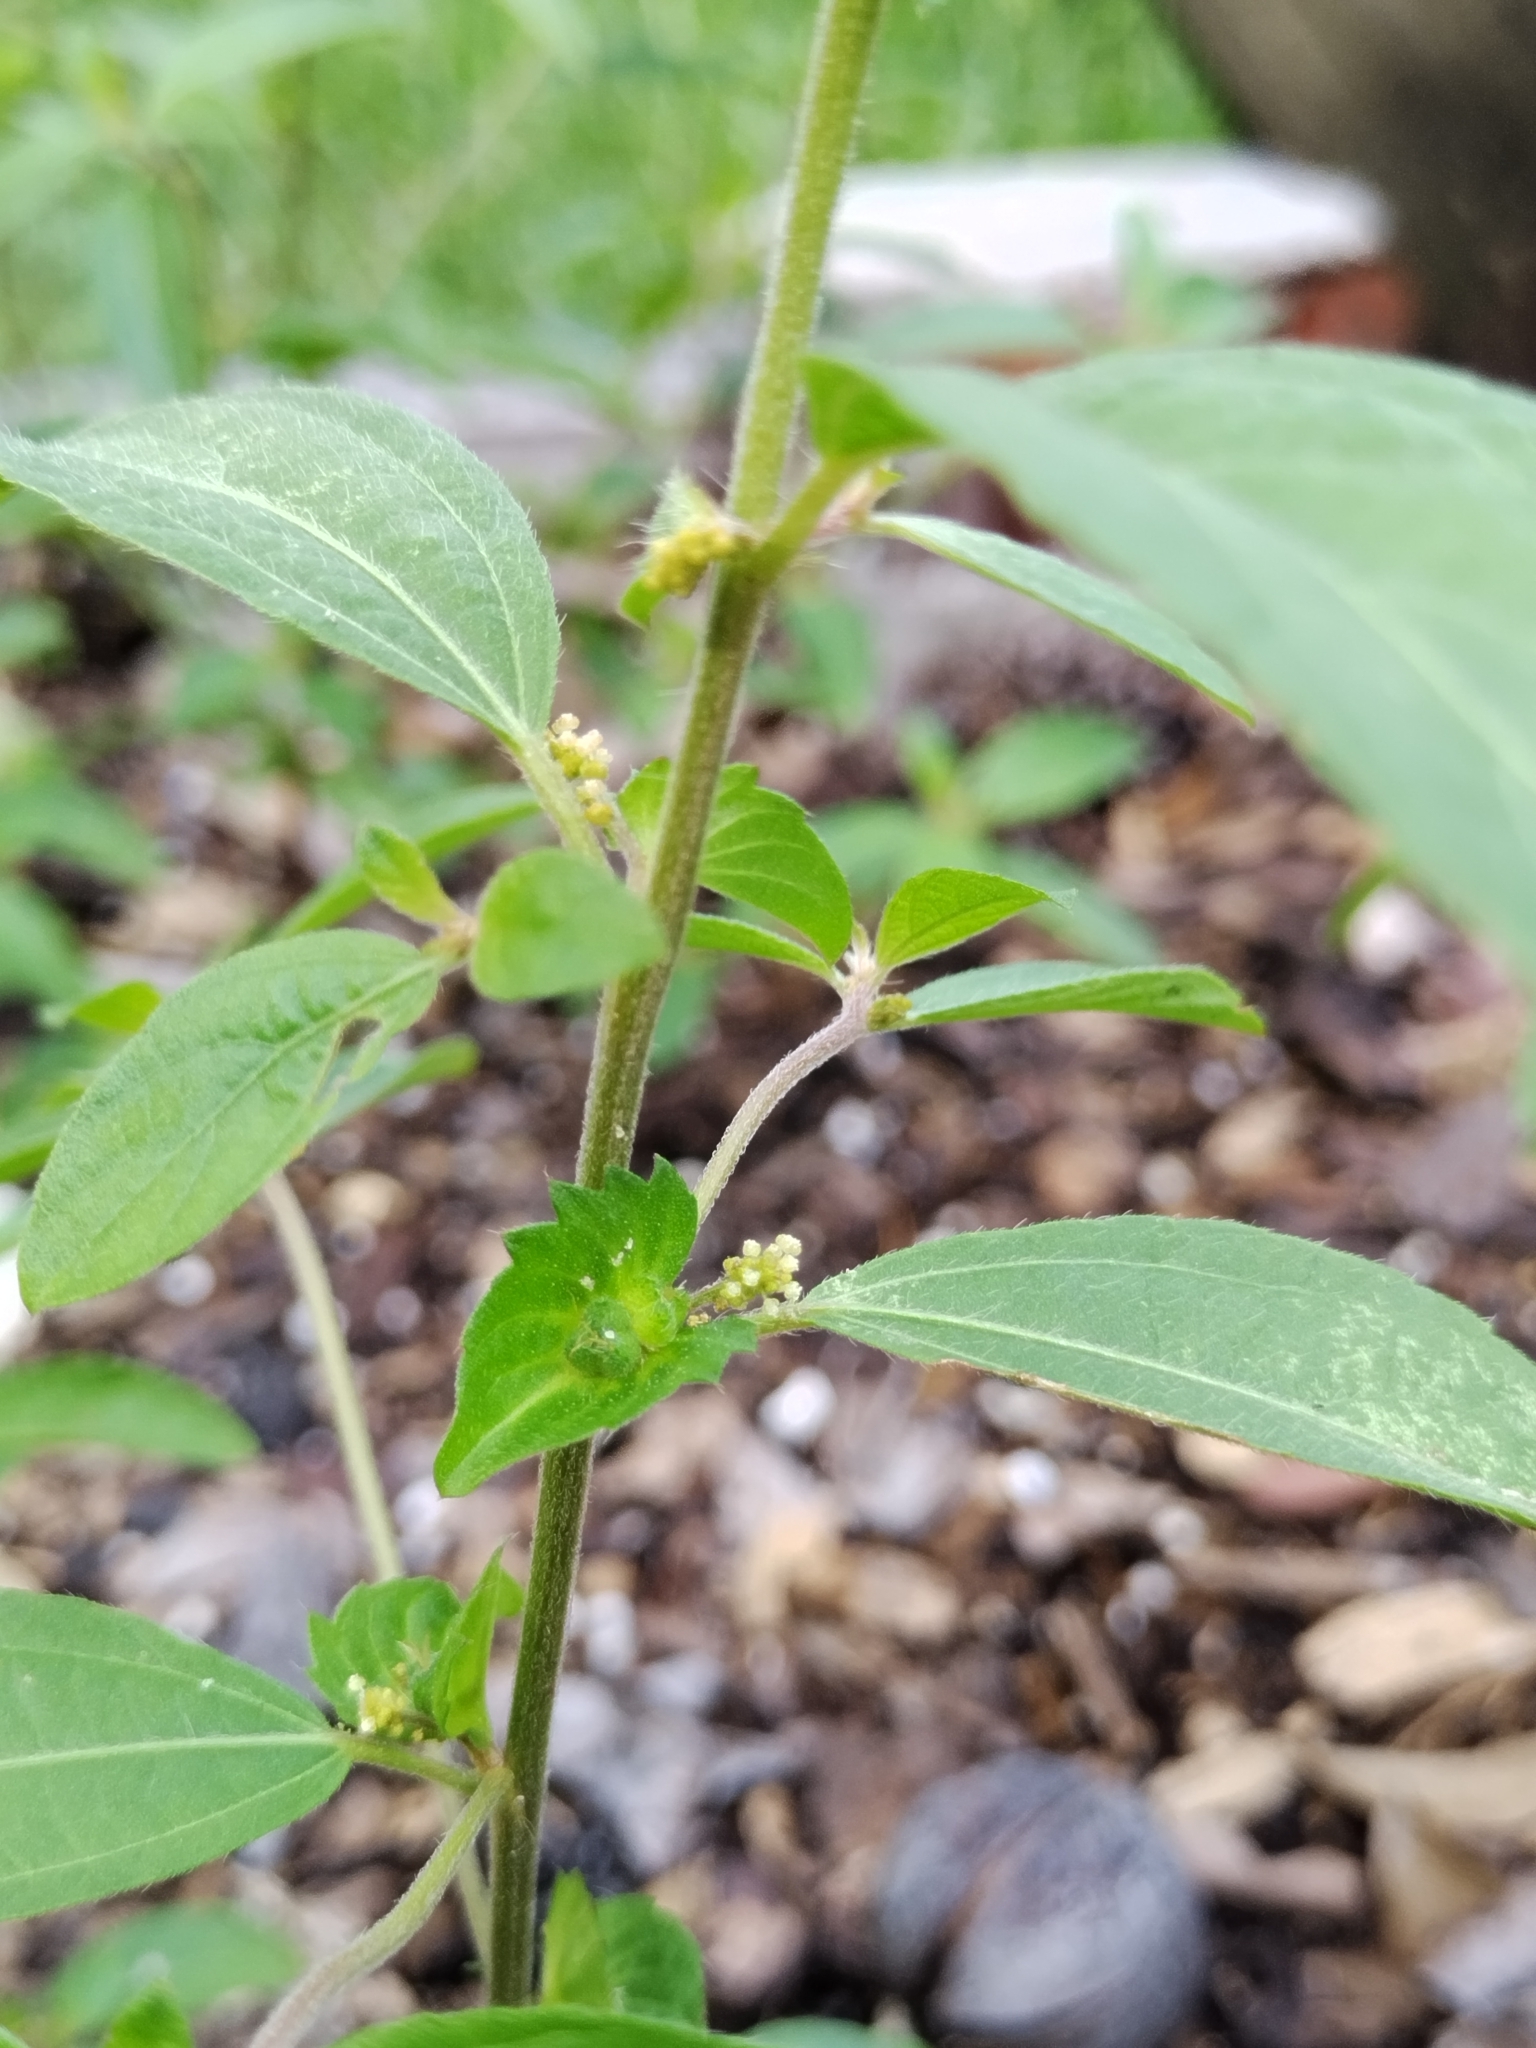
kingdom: Plantae
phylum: Tracheophyta
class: Magnoliopsida
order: Malpighiales
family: Euphorbiaceae
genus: Acalypha
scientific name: Acalypha gracilens
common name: Slender three-seeded mercury
